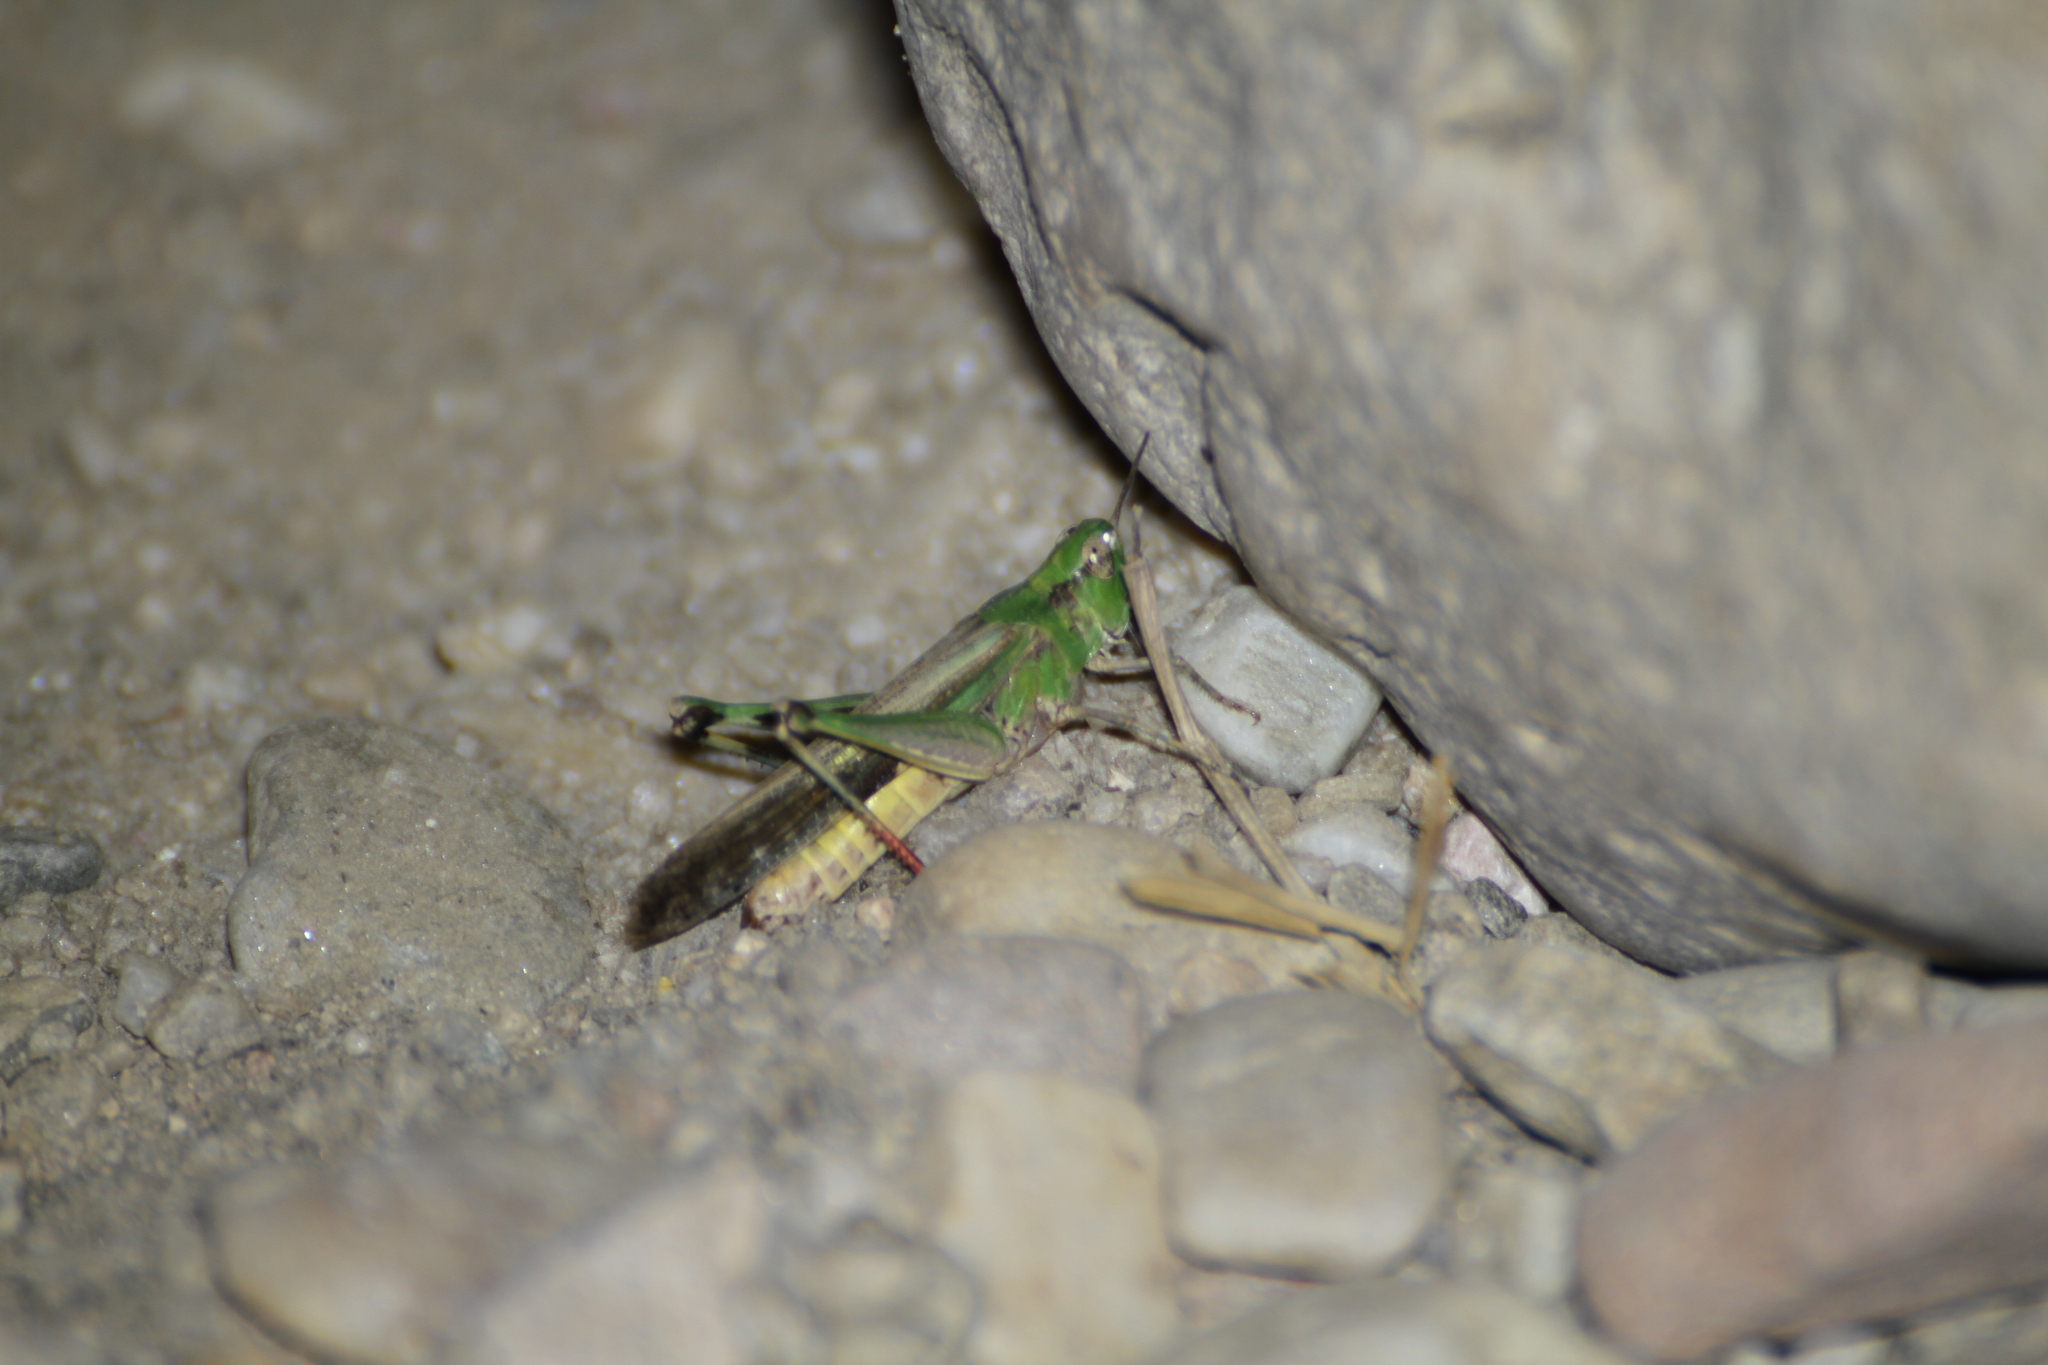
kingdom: Animalia
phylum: Arthropoda
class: Insecta
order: Orthoptera
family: Acrididae
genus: Aiolopus
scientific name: Aiolopus puissanti
